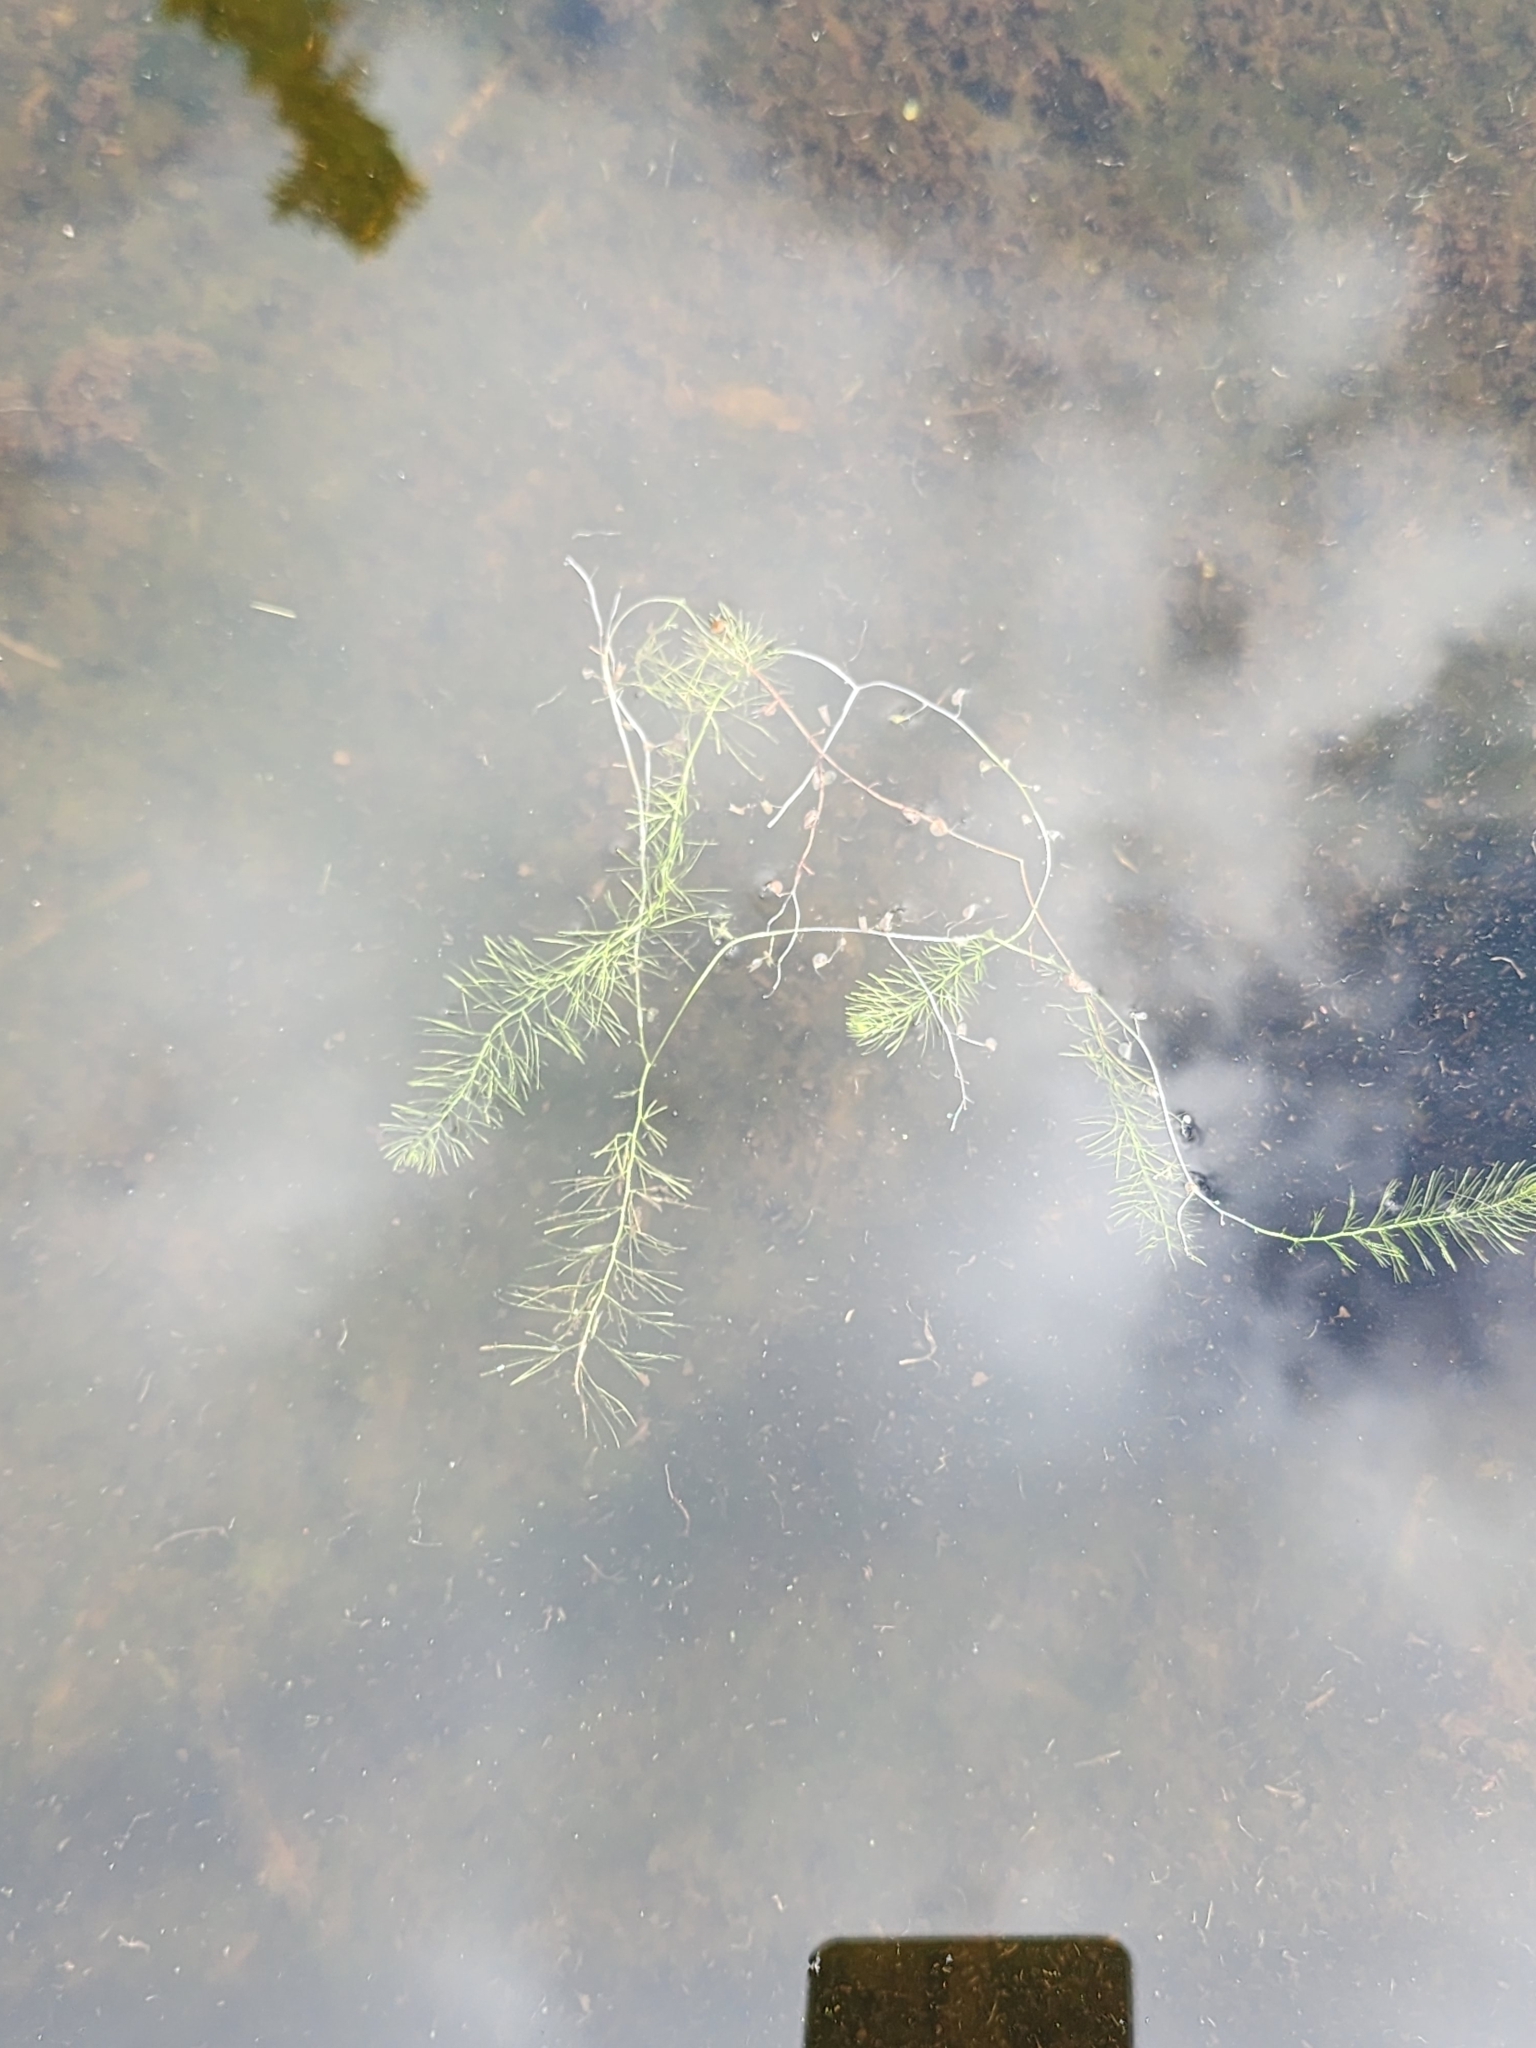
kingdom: Plantae
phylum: Tracheophyta
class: Magnoliopsida
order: Lamiales
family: Lentibulariaceae
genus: Utricularia
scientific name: Utricularia intermedia
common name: Intermediate bladderwort
